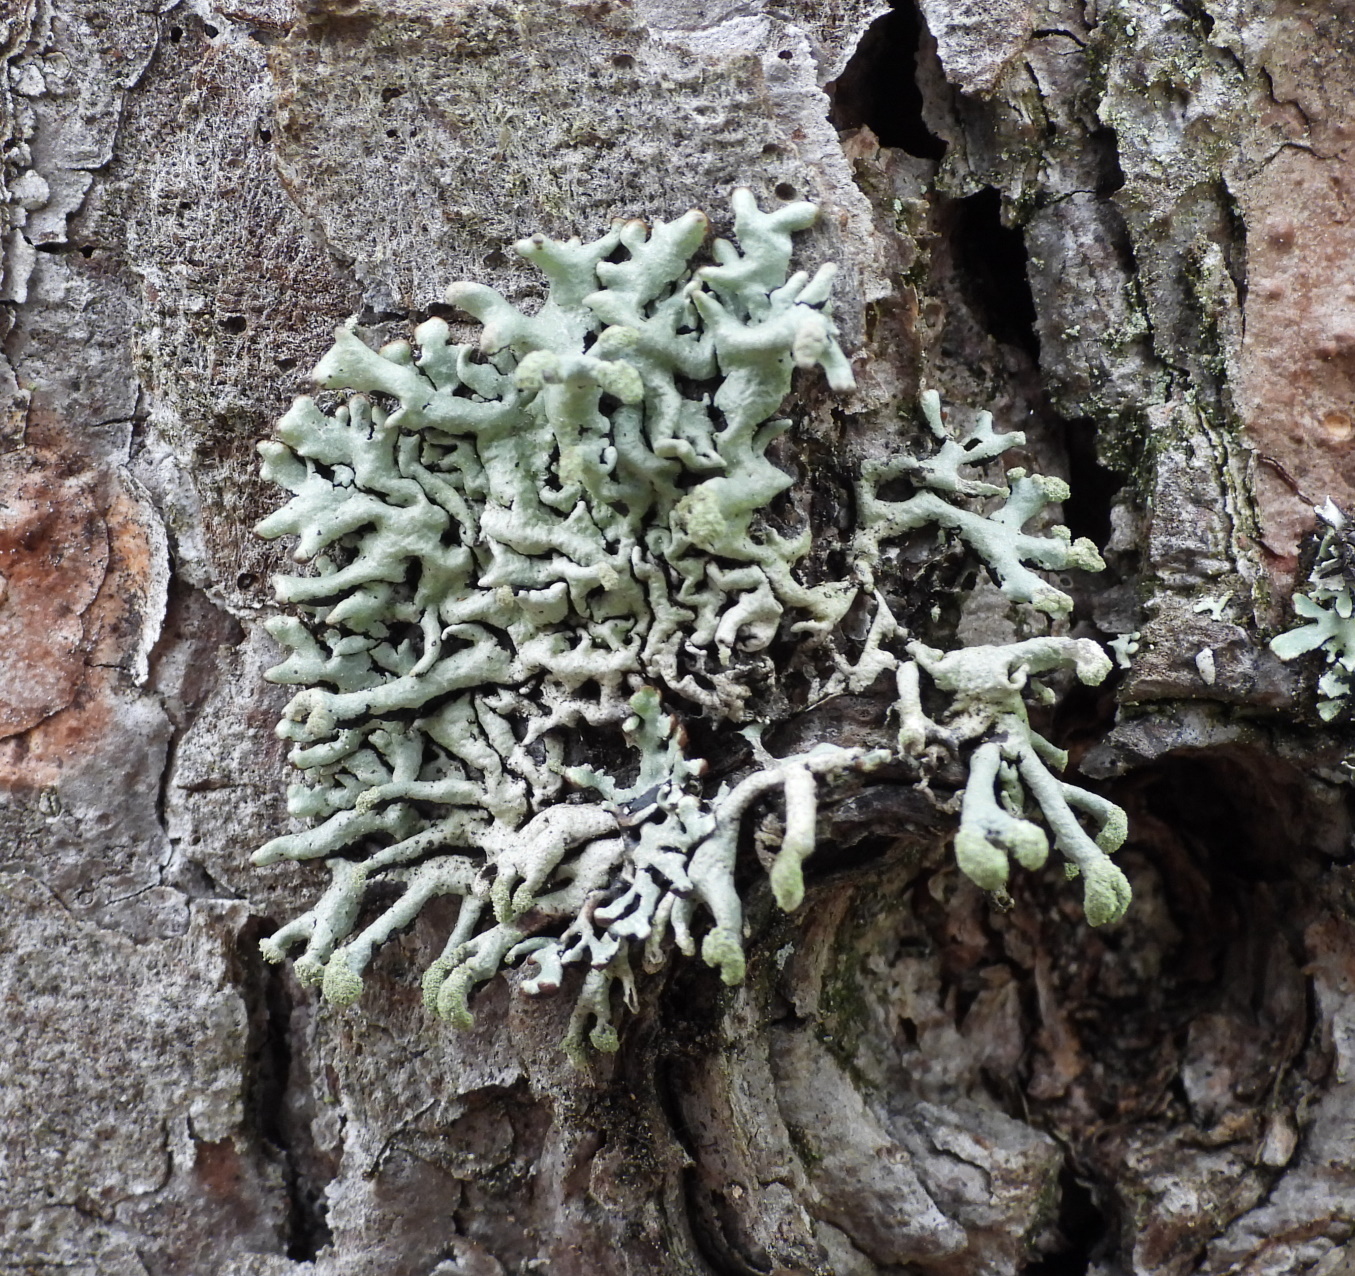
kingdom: Fungi
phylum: Ascomycota
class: Lecanoromycetes
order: Lecanorales
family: Parmeliaceae
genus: Hypogymnia
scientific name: Hypogymnia tubulosa
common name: Powder-headed tube lichen
